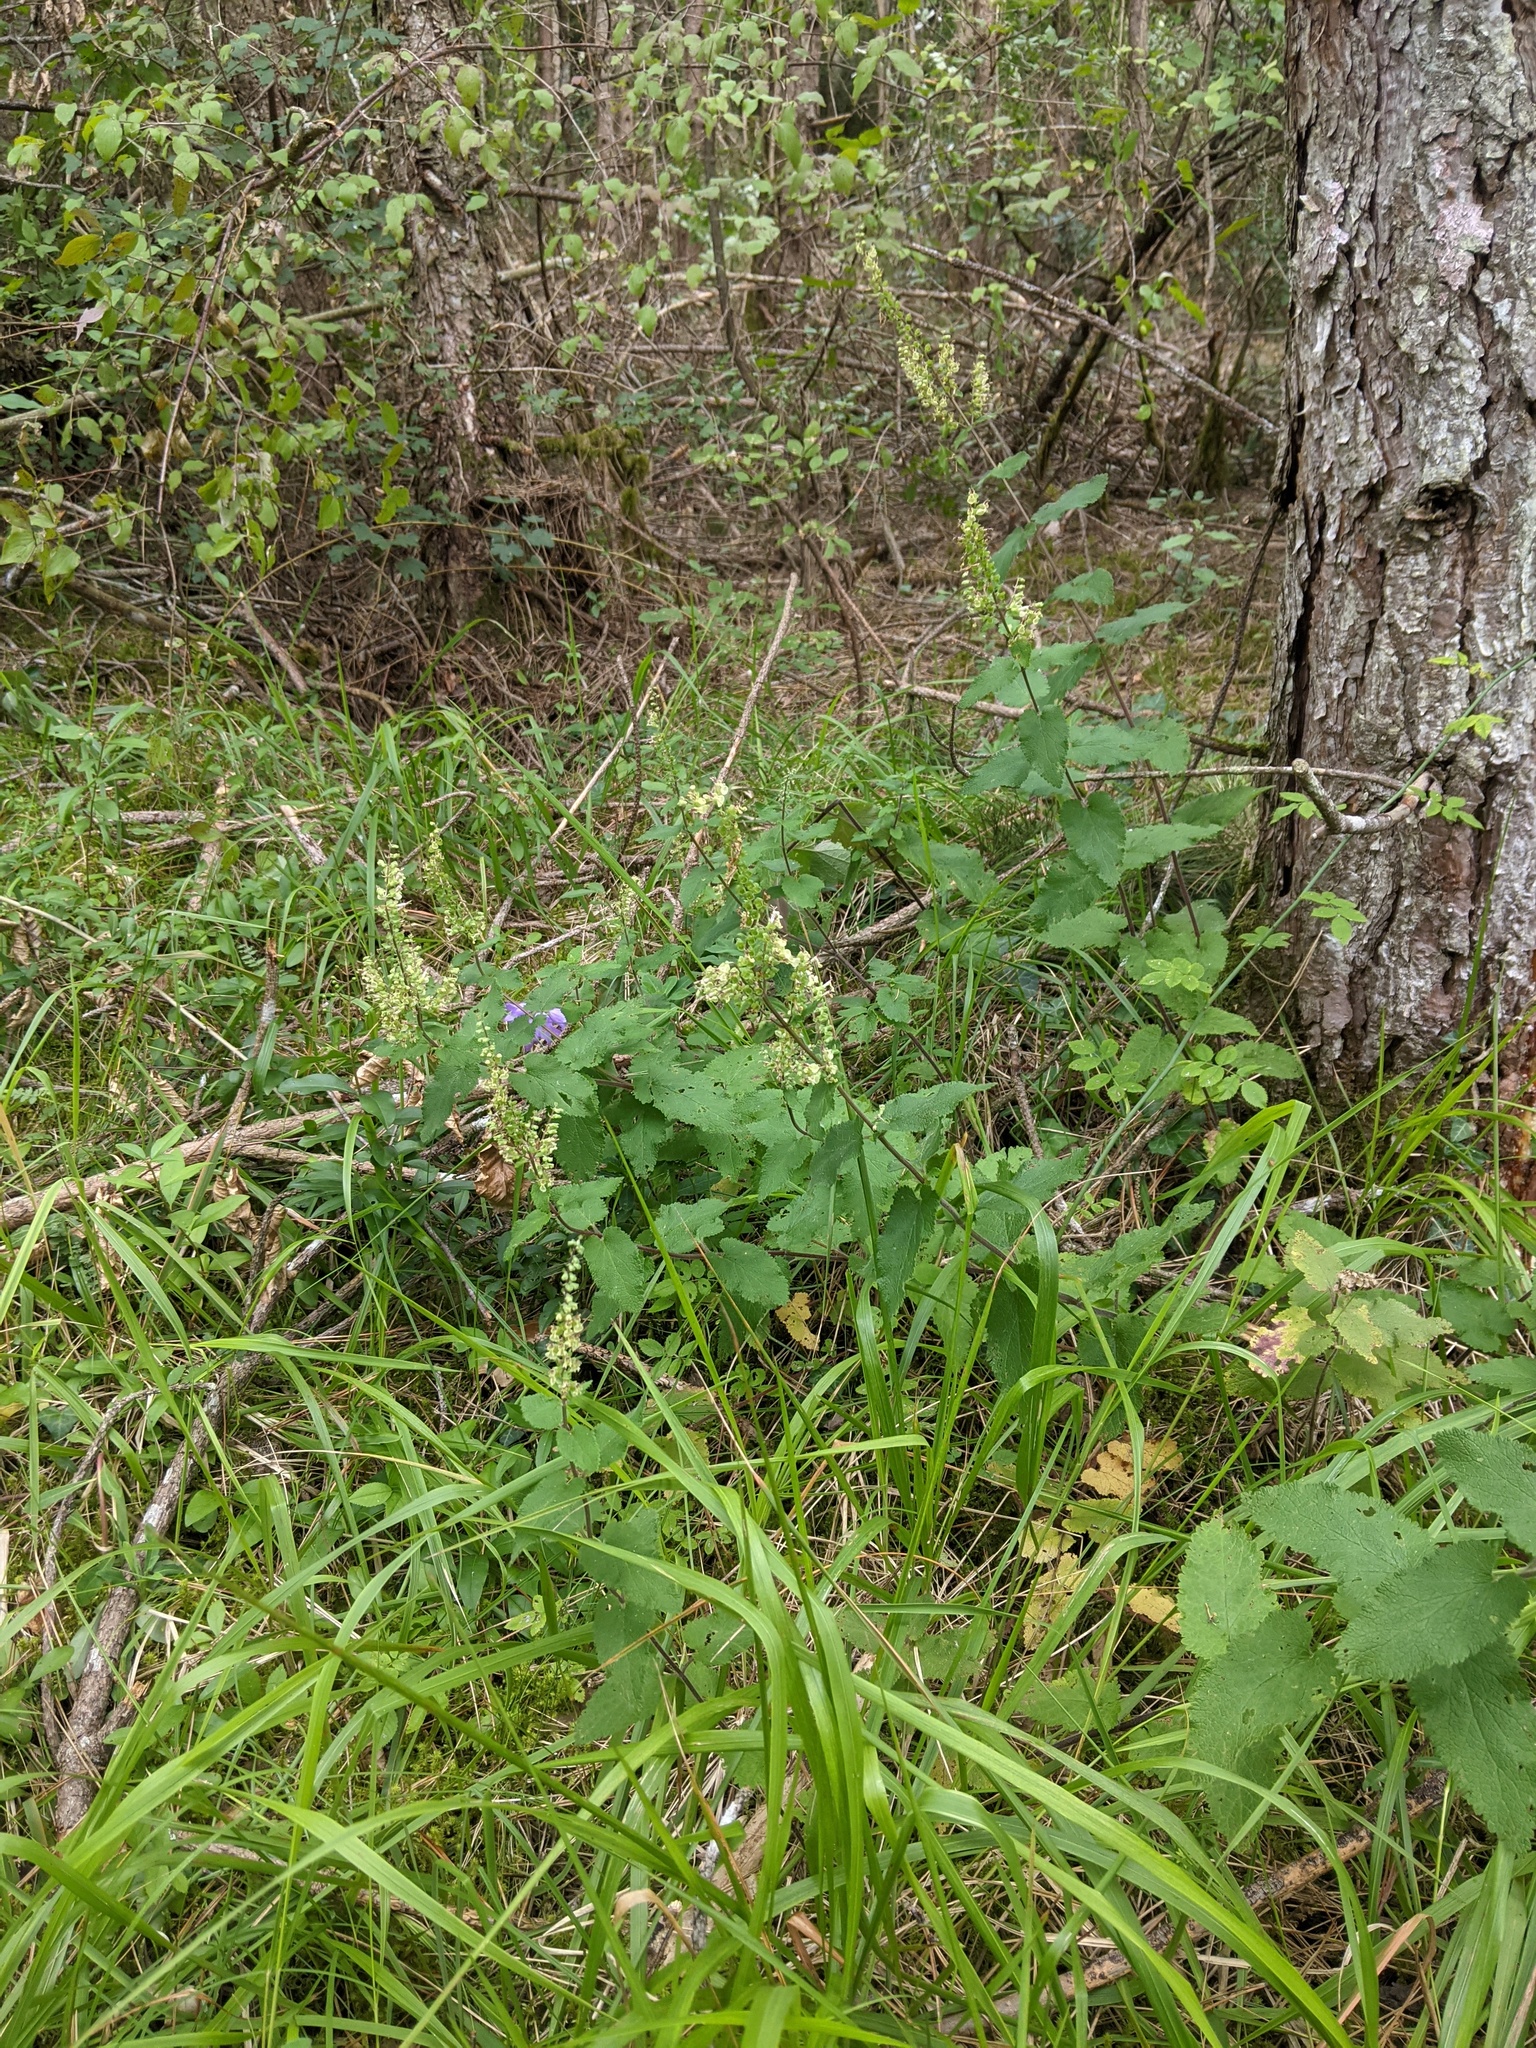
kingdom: Plantae
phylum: Tracheophyta
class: Magnoliopsida
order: Lamiales
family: Lamiaceae
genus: Teucrium
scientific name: Teucrium scorodonia
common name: Woodland germander
